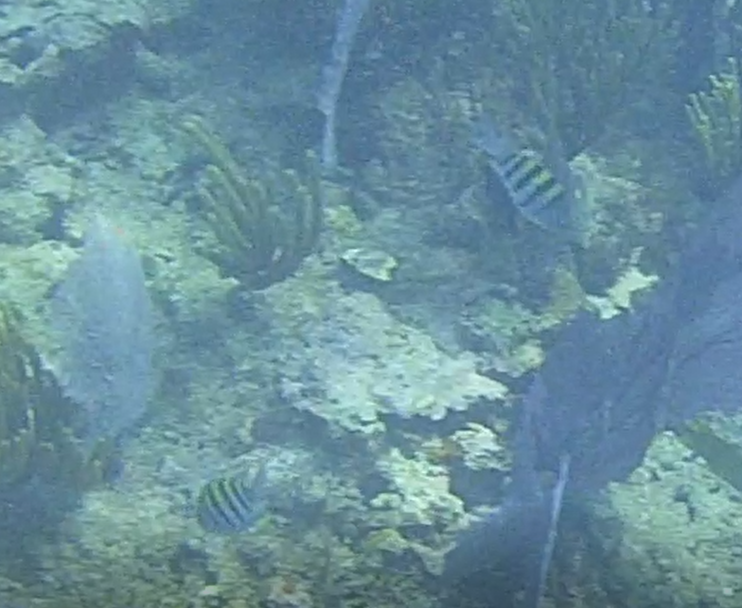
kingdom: Animalia
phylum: Chordata
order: Perciformes
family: Pomacentridae
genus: Abudefduf
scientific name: Abudefduf saxatilis
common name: Sergeant major
